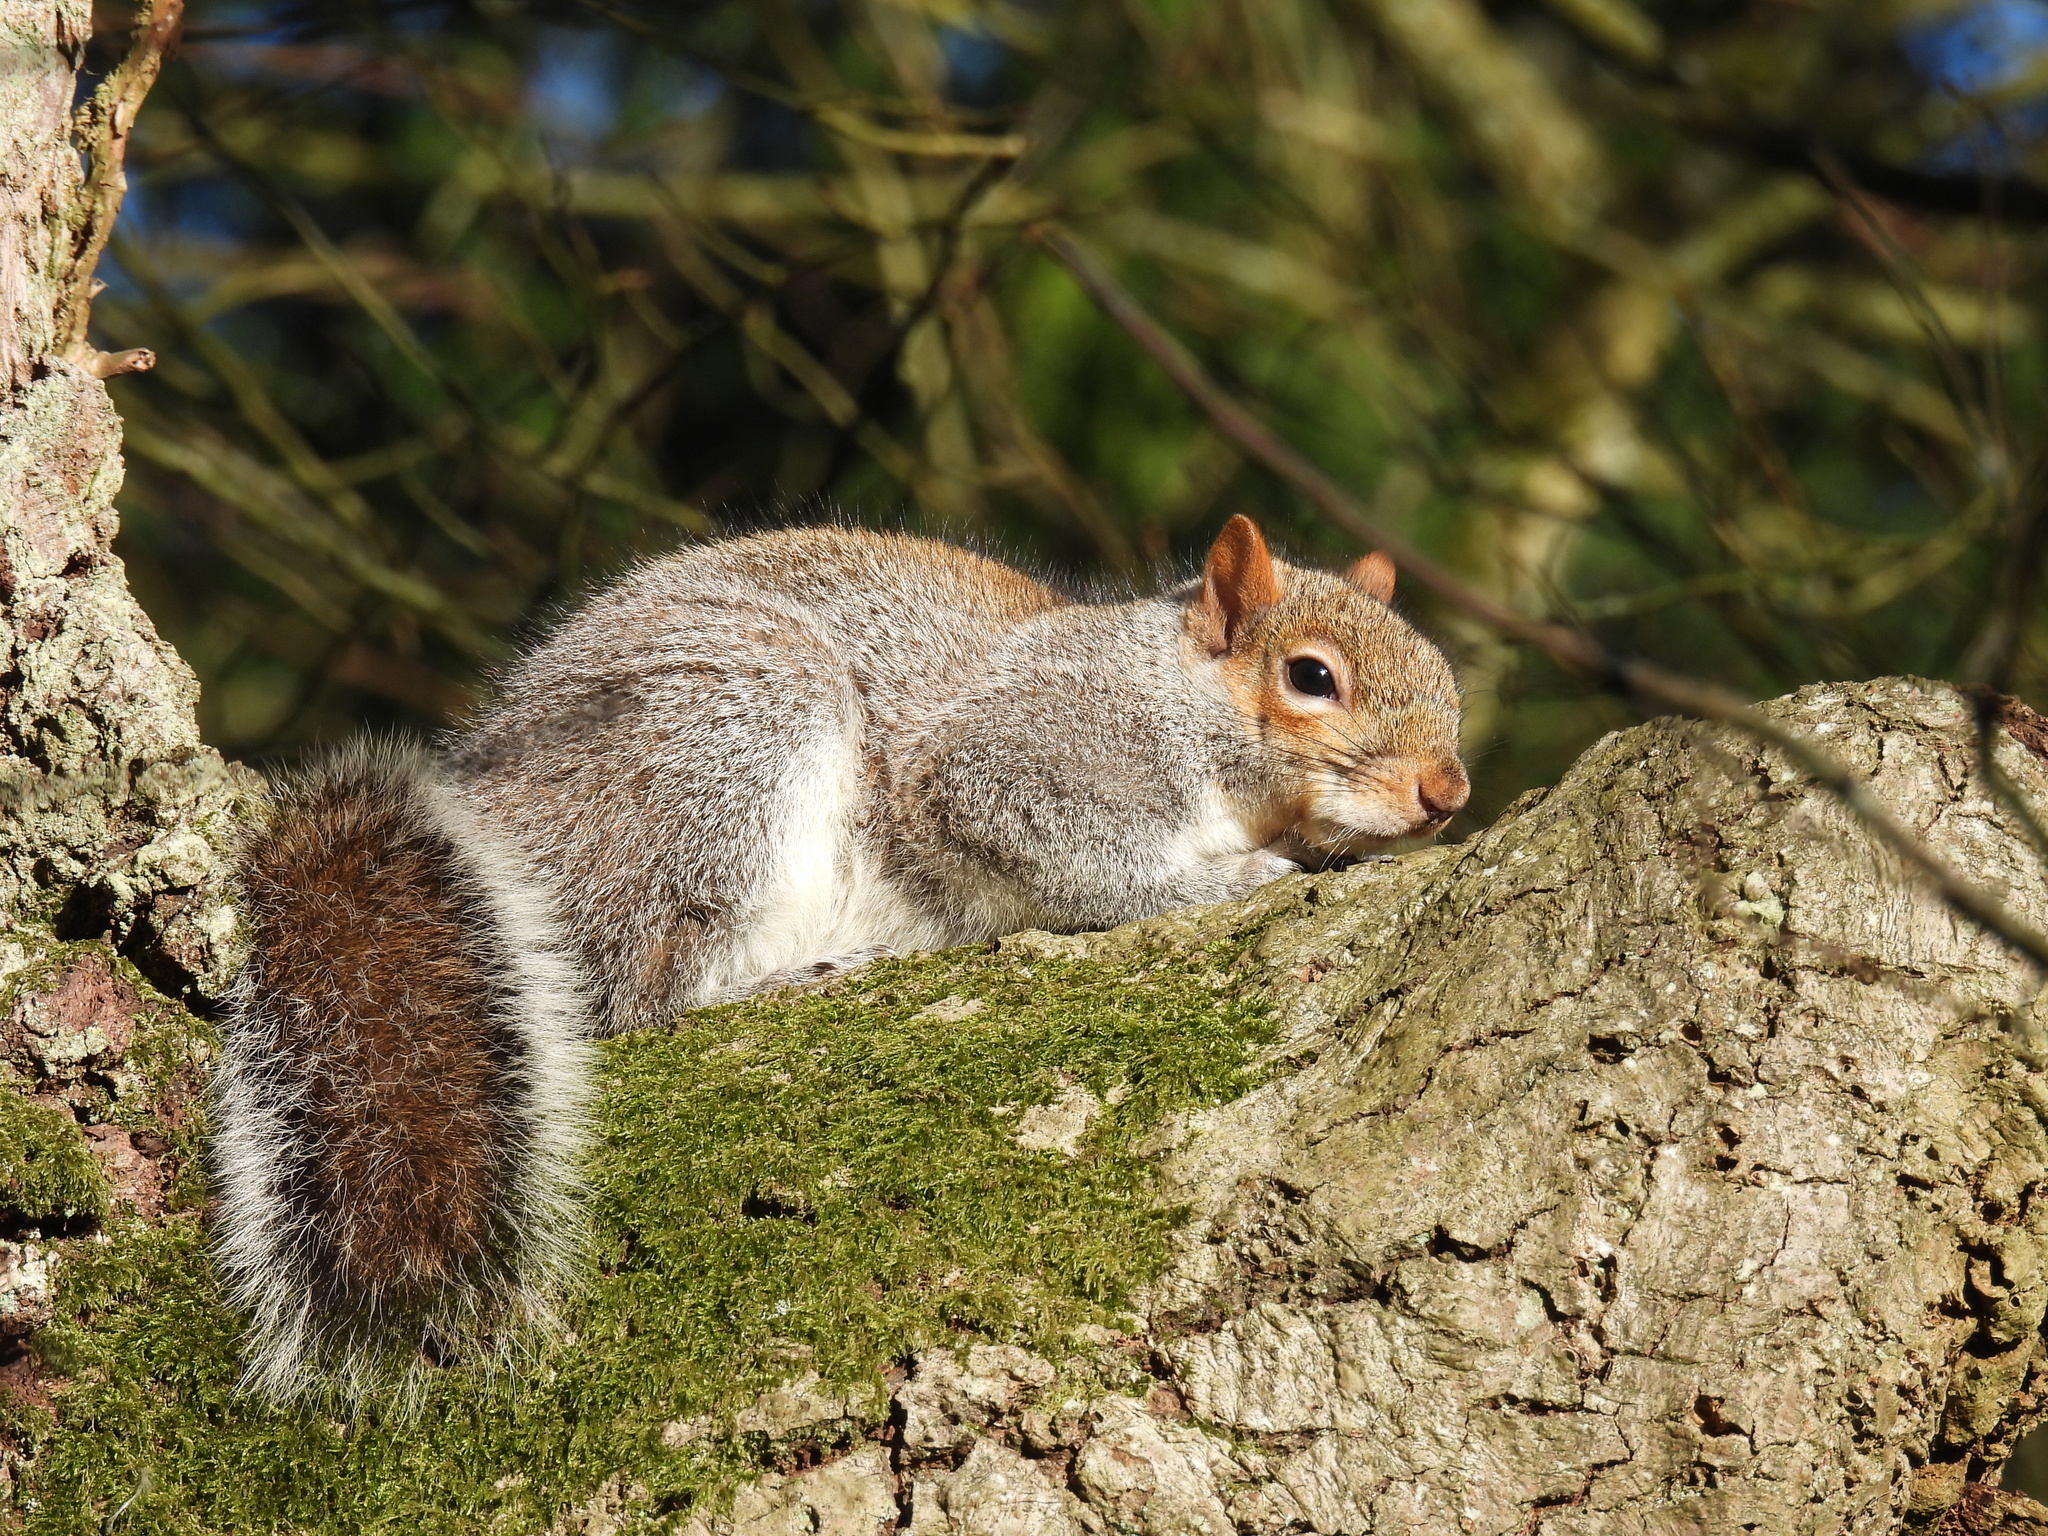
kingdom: Animalia
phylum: Chordata
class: Mammalia
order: Rodentia
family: Sciuridae
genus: Sciurus
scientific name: Sciurus carolinensis
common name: Eastern gray squirrel
